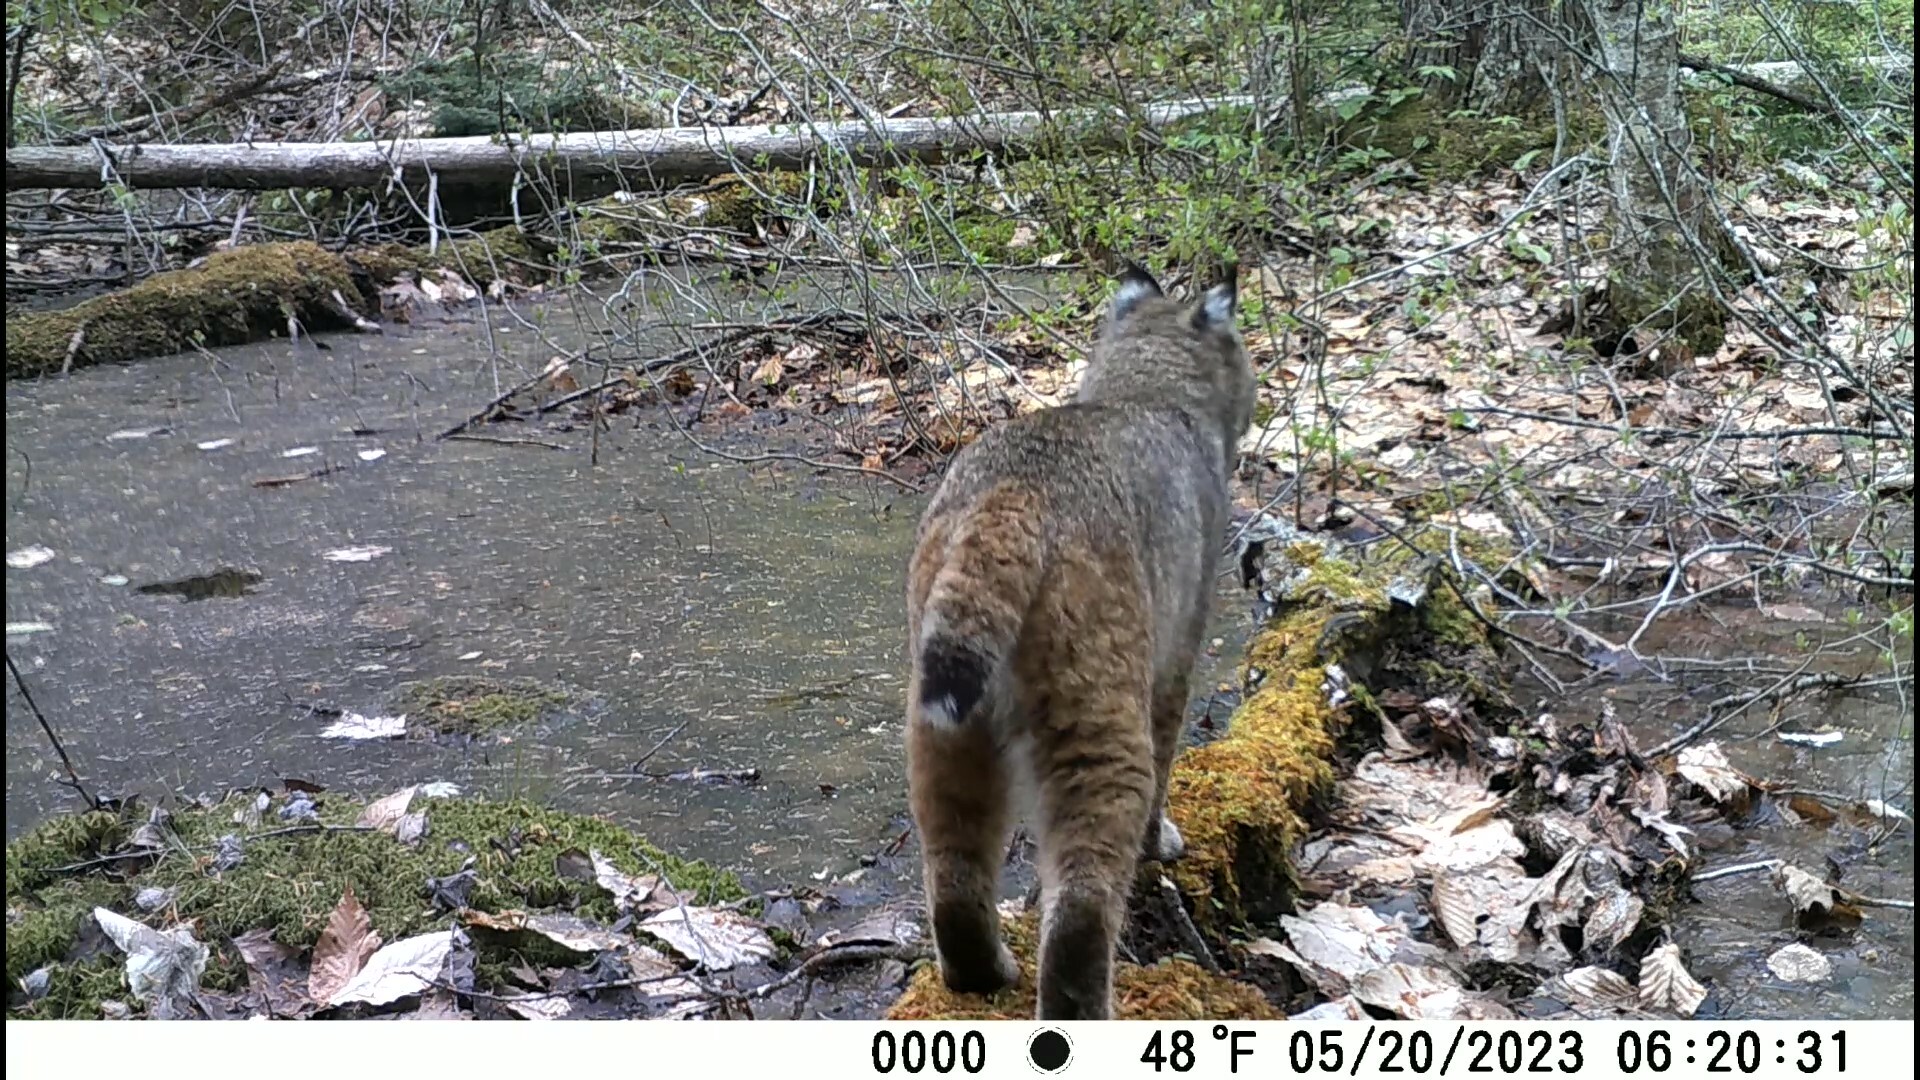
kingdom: Animalia
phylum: Chordata
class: Mammalia
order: Carnivora
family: Felidae
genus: Lynx
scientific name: Lynx rufus
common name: Bobcat
